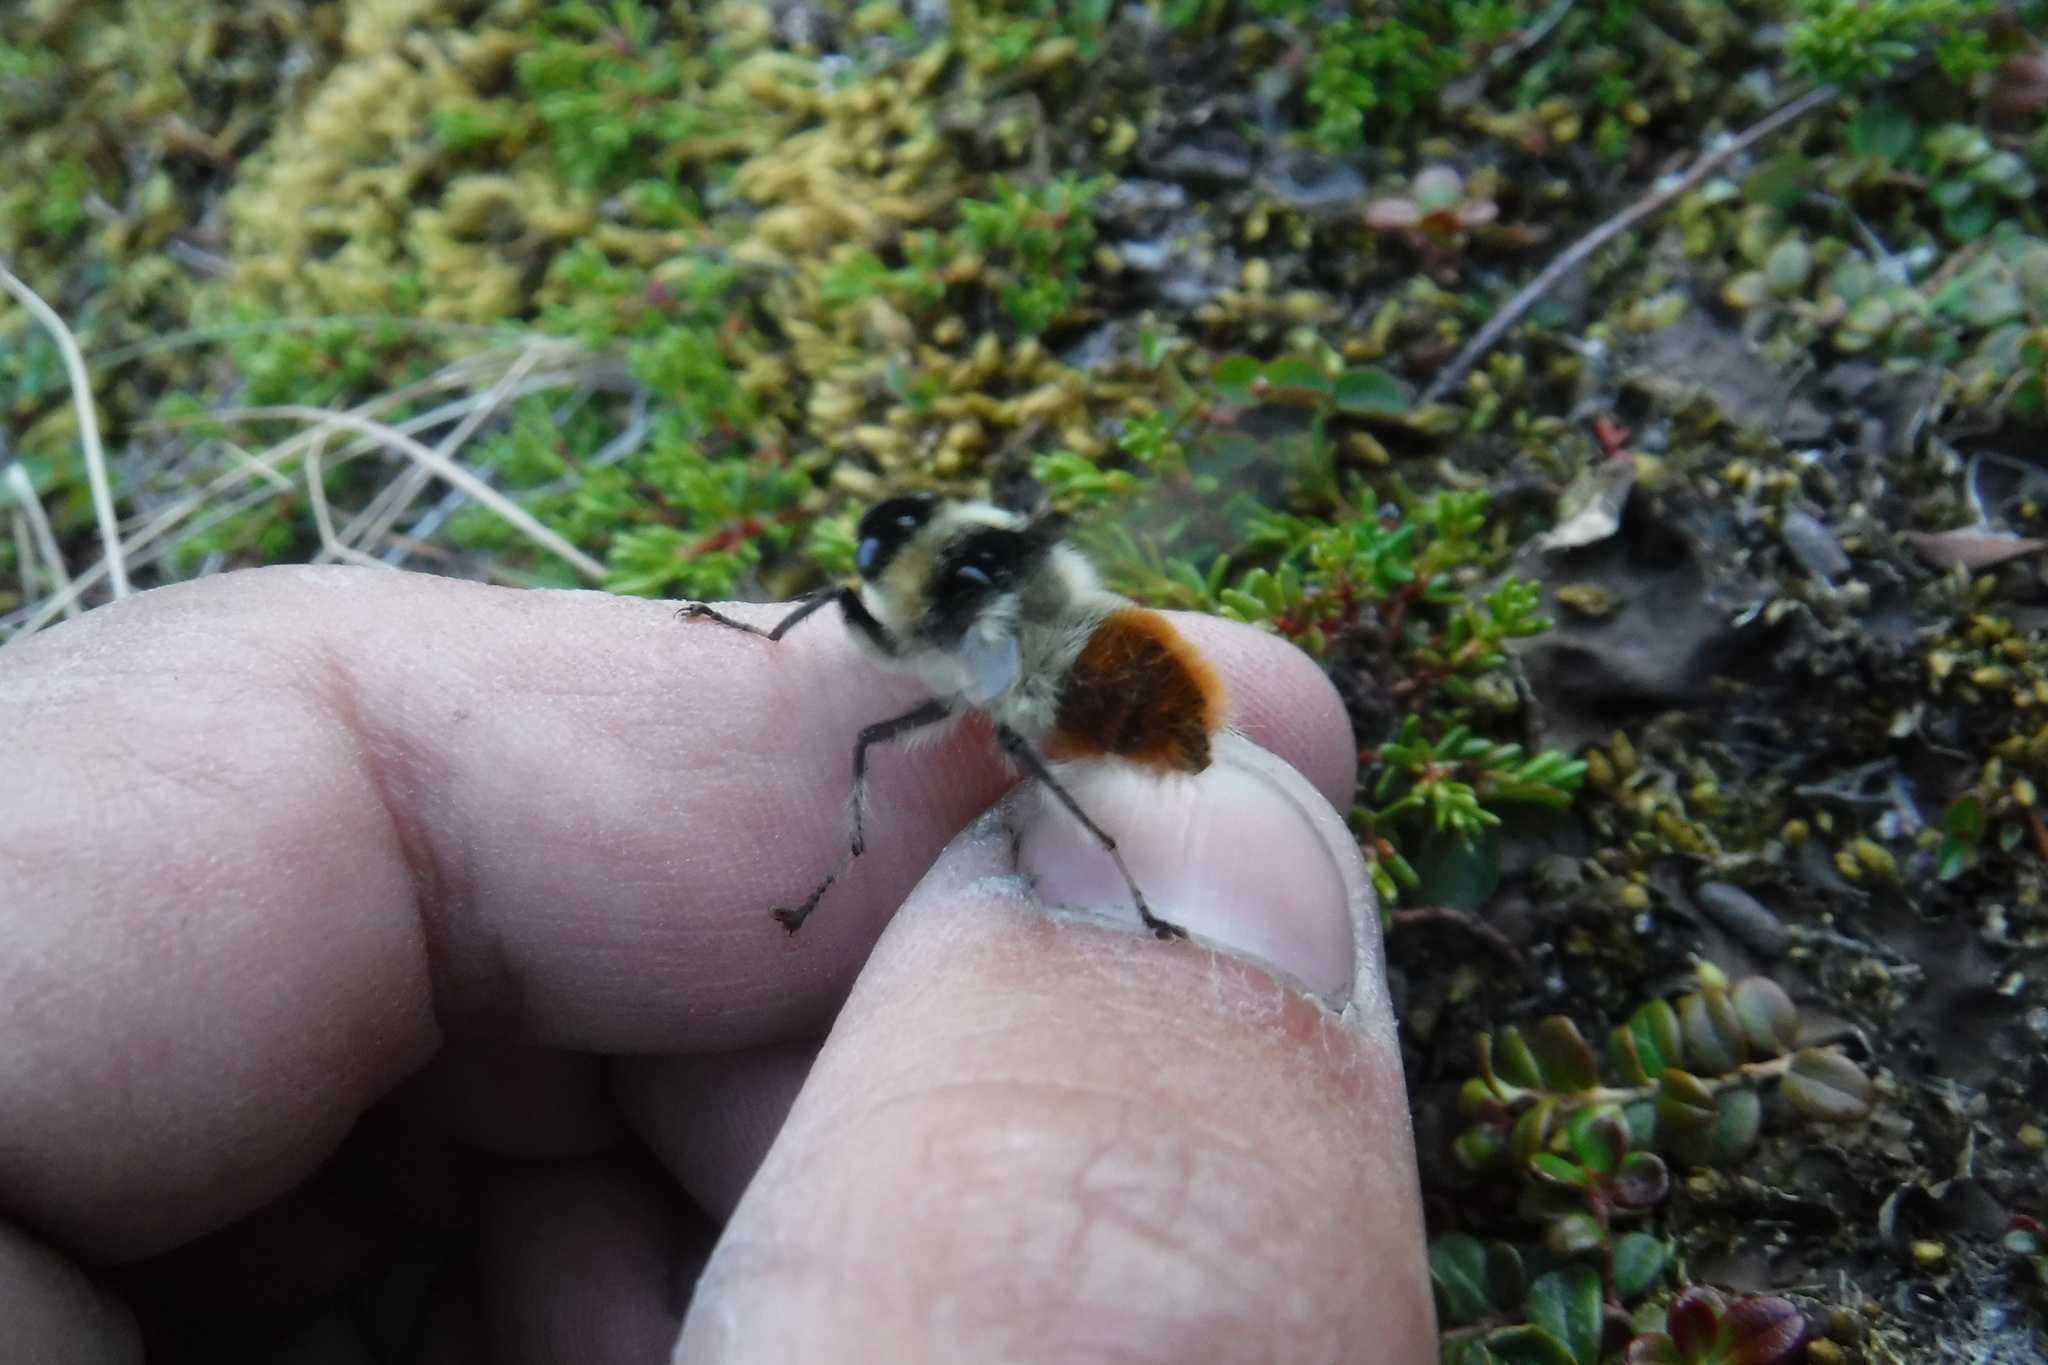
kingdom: Animalia
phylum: Arthropoda
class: Insecta
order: Diptera
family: Oestridae
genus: Hypoderma
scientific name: Hypoderma tarandi
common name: Botfly
